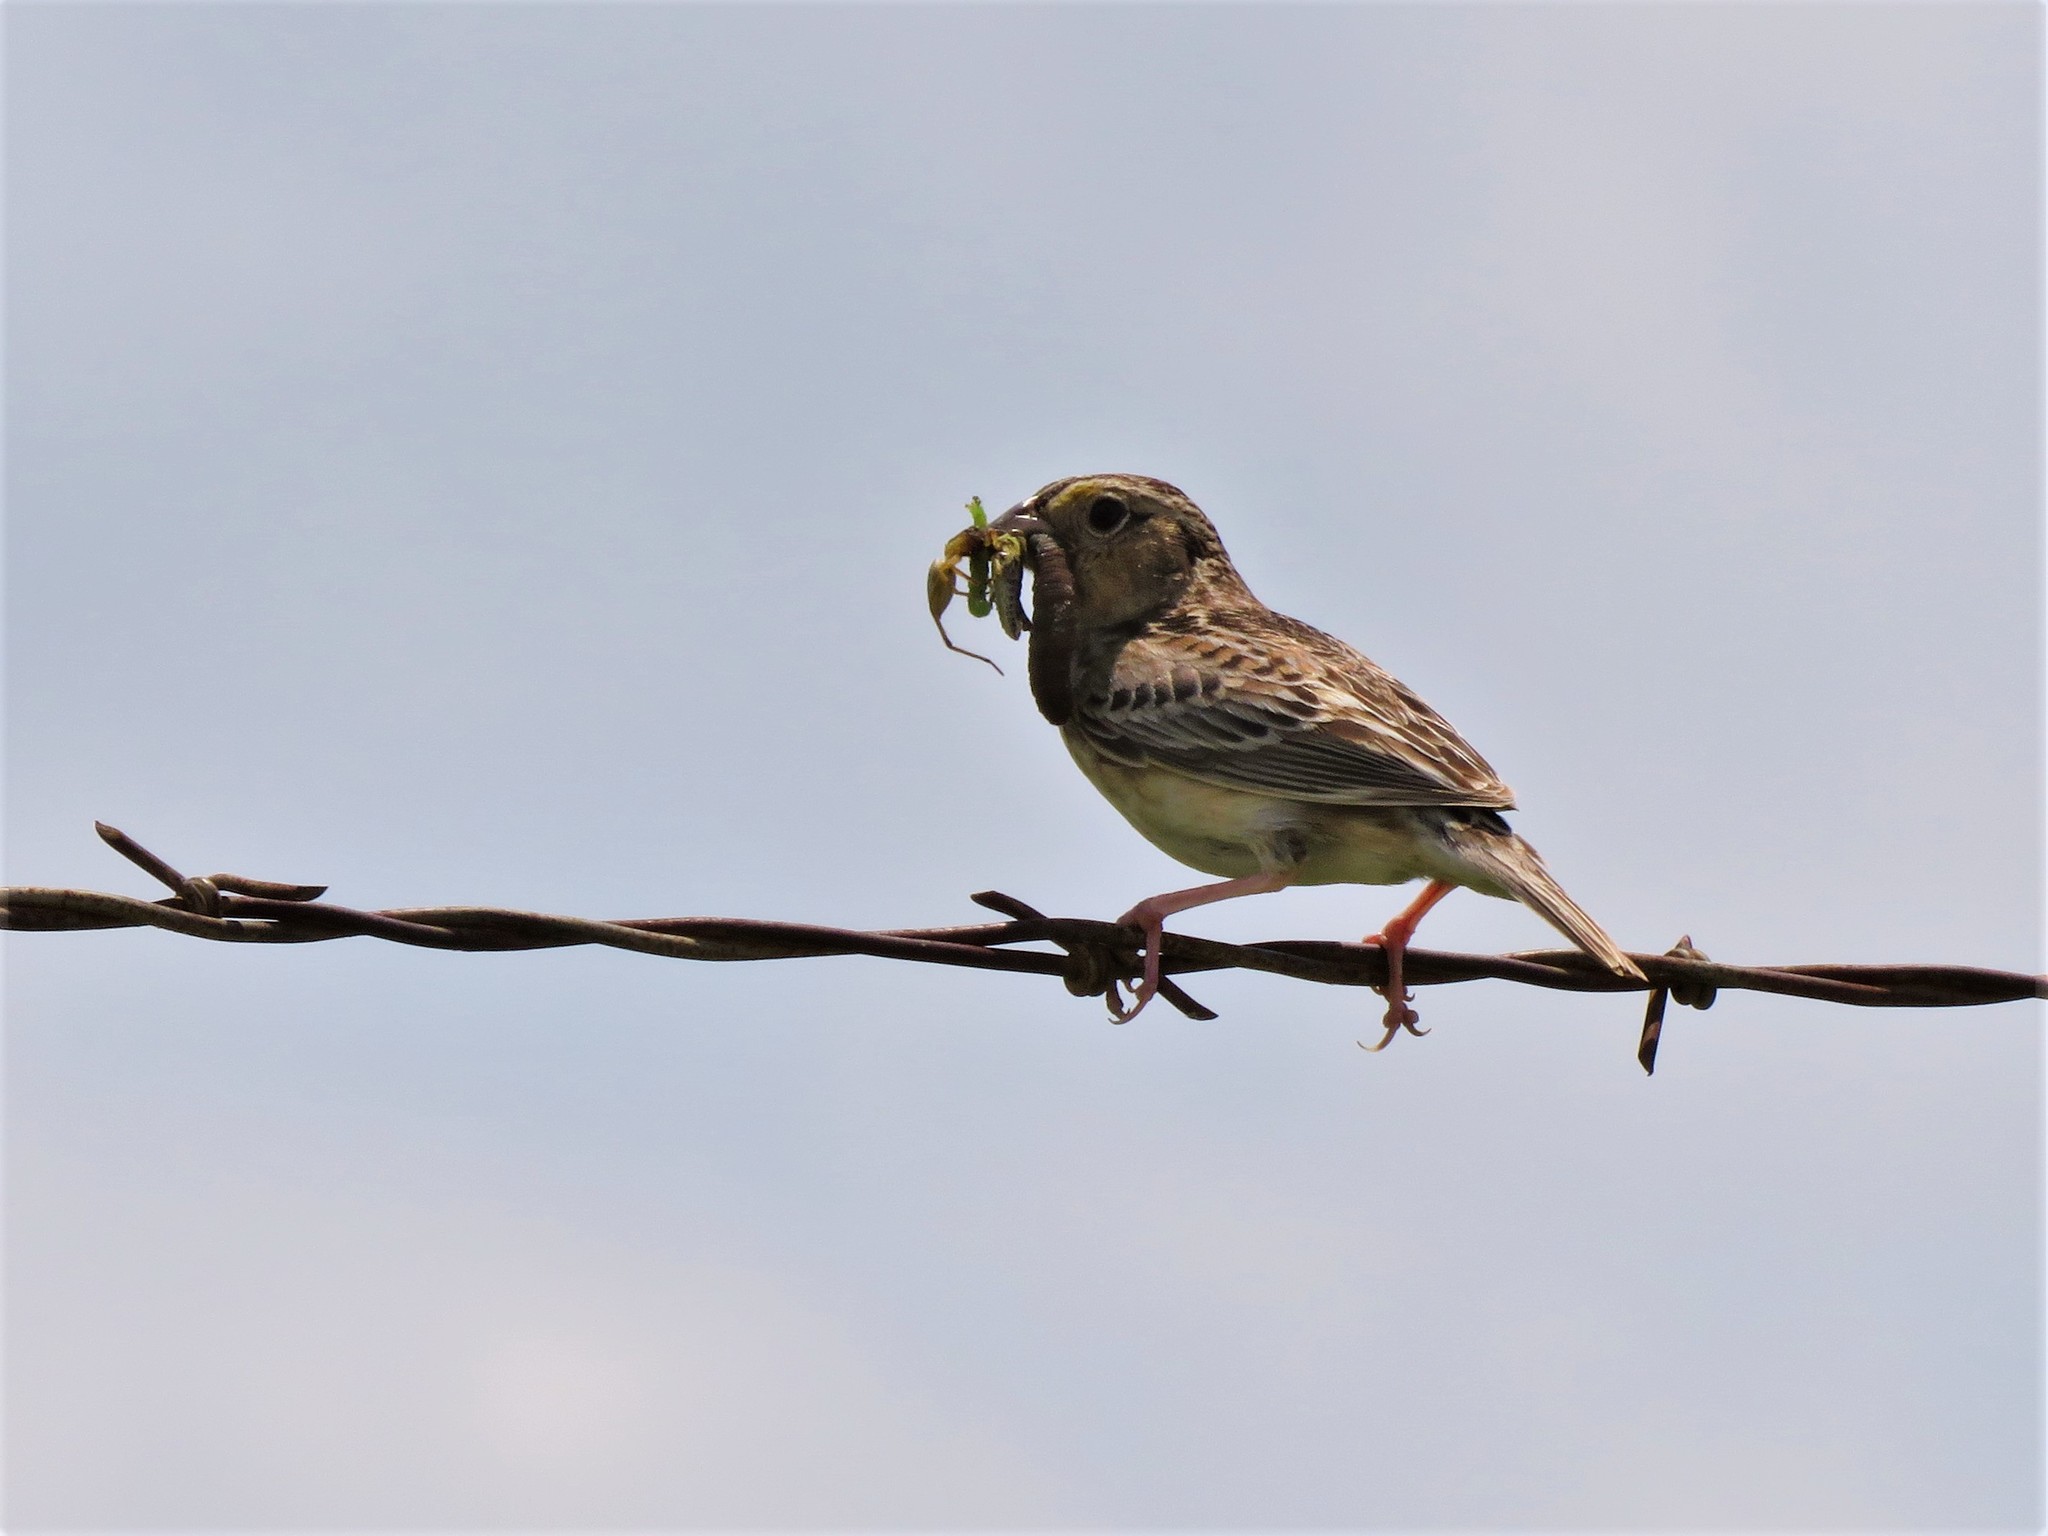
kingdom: Animalia
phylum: Chordata
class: Aves
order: Passeriformes
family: Passerellidae
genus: Ammodramus
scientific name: Ammodramus savannarum
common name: Grasshopper sparrow
